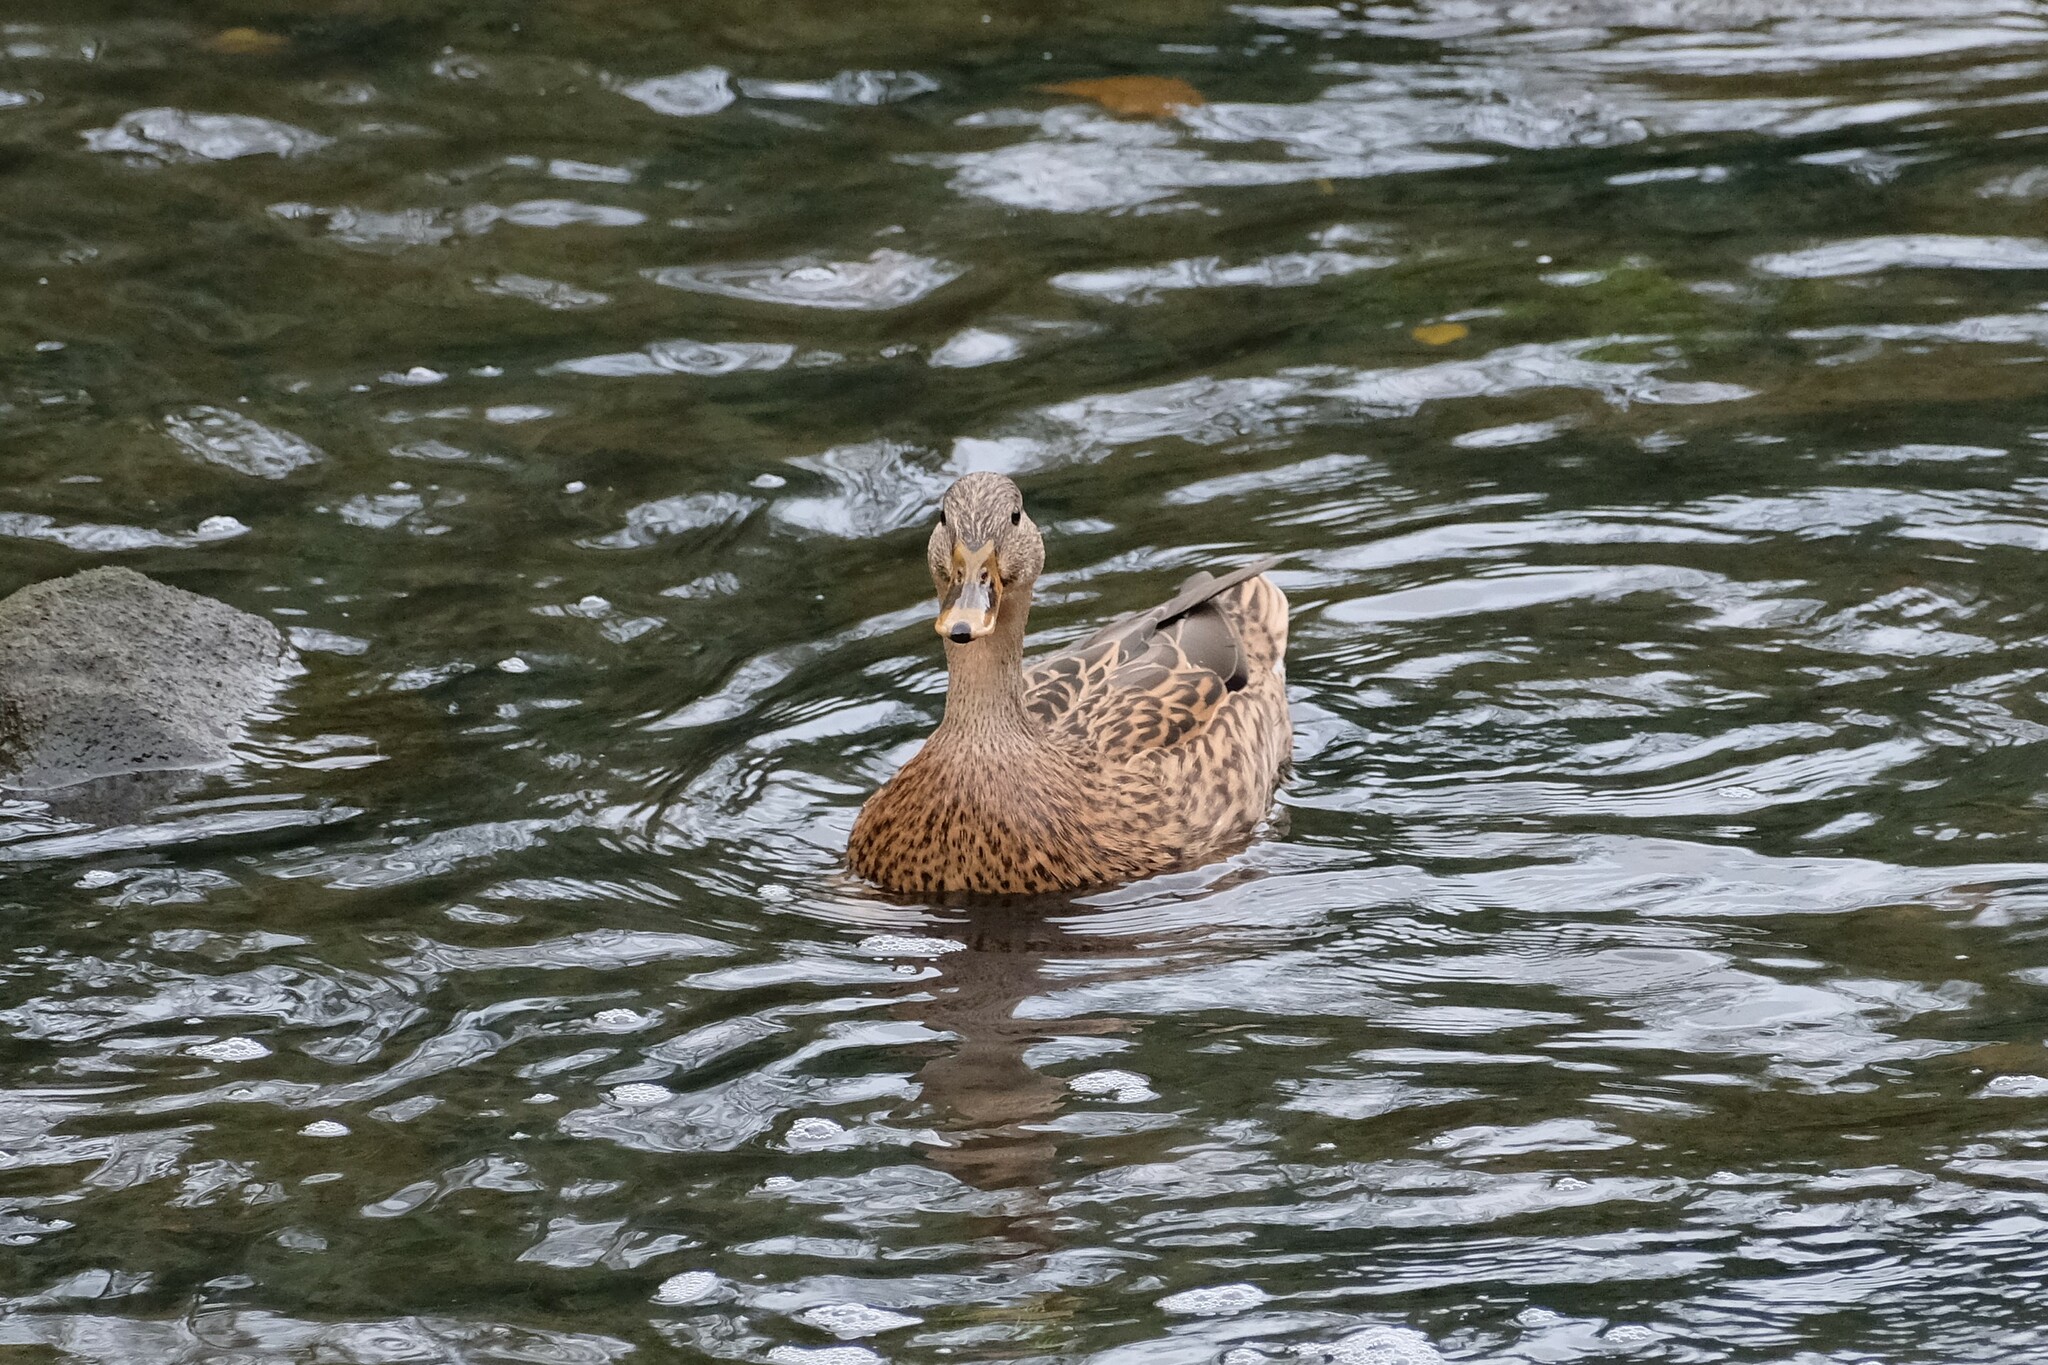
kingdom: Animalia
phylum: Chordata
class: Aves
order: Anseriformes
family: Anatidae
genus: Anas
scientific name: Anas platyrhynchos
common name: Mallard
